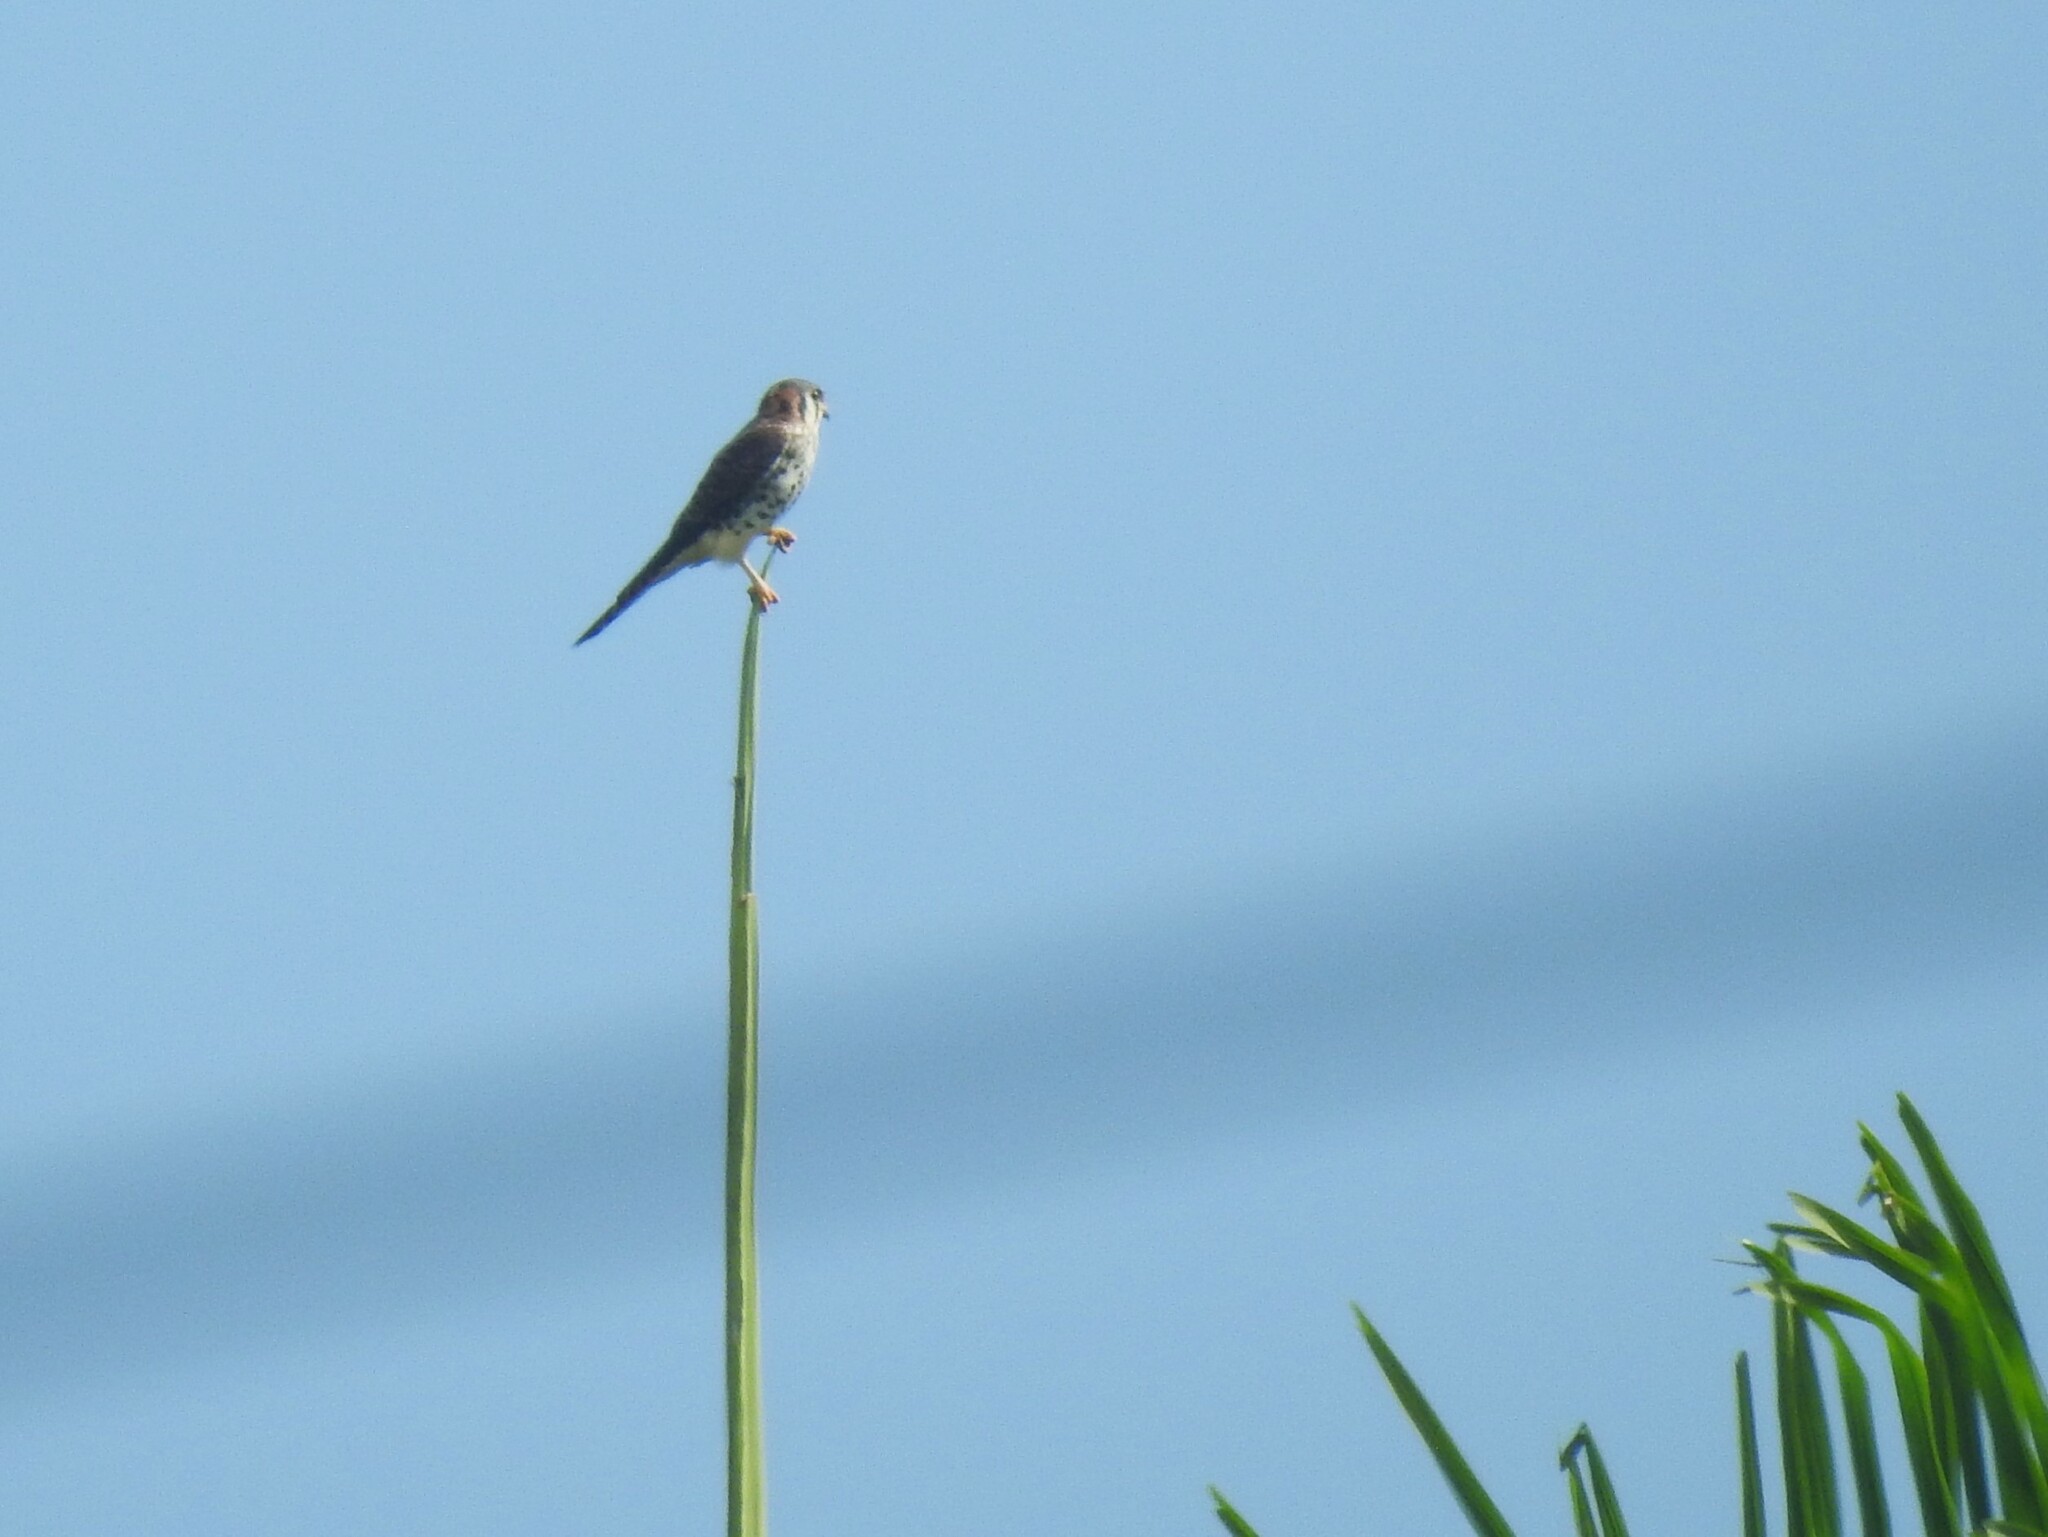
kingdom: Animalia
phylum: Chordata
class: Aves
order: Falconiformes
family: Falconidae
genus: Falco
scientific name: Falco sparverius
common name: American kestrel
